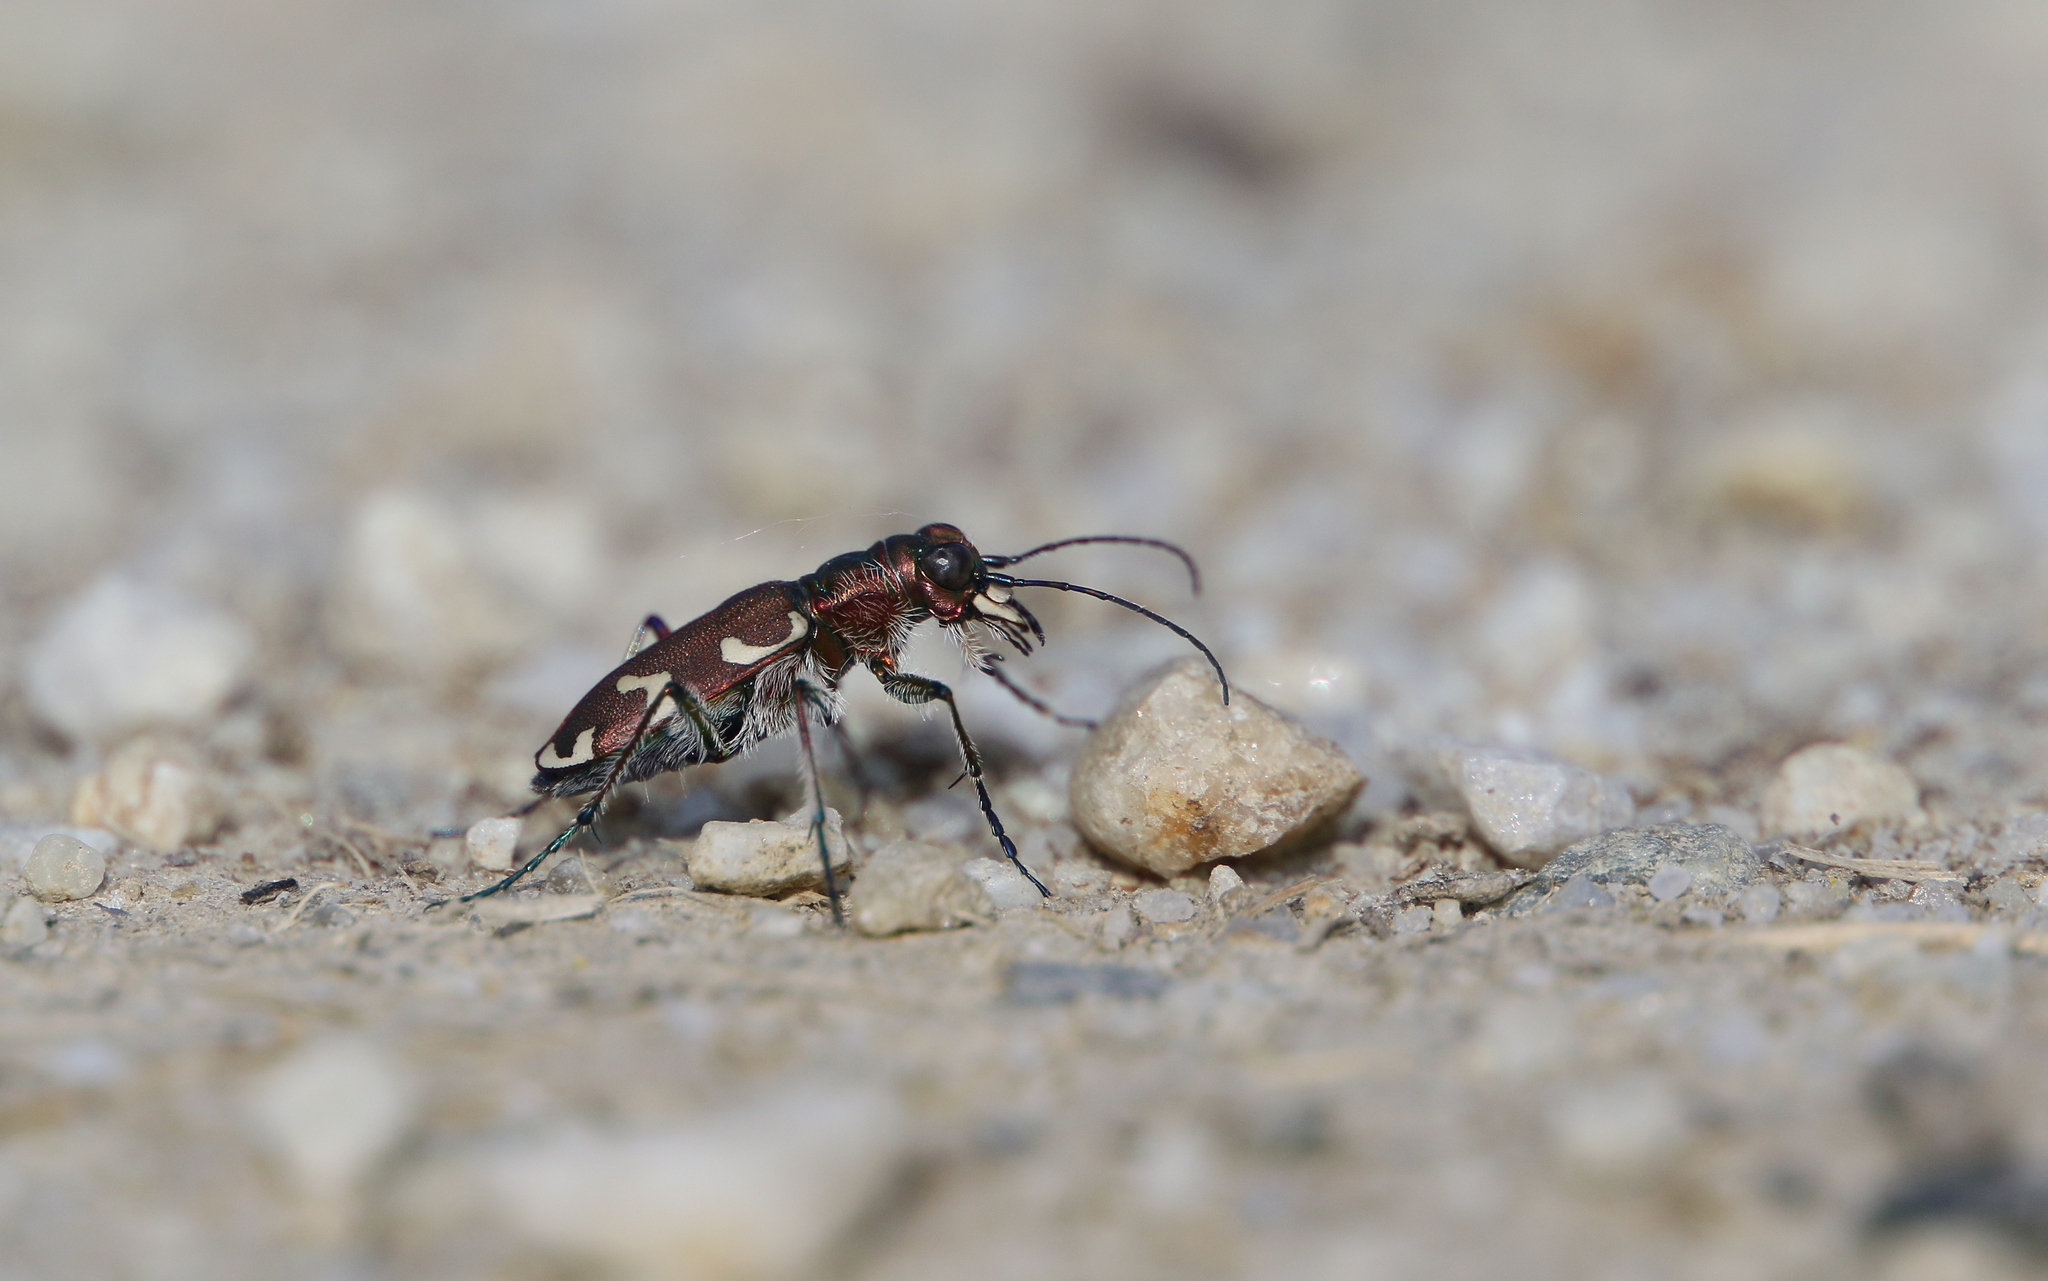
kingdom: Animalia
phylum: Arthropoda
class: Insecta
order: Coleoptera
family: Carabidae
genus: Cicindela
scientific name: Cicindela hybrida
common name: Northern dune tiger beetle
